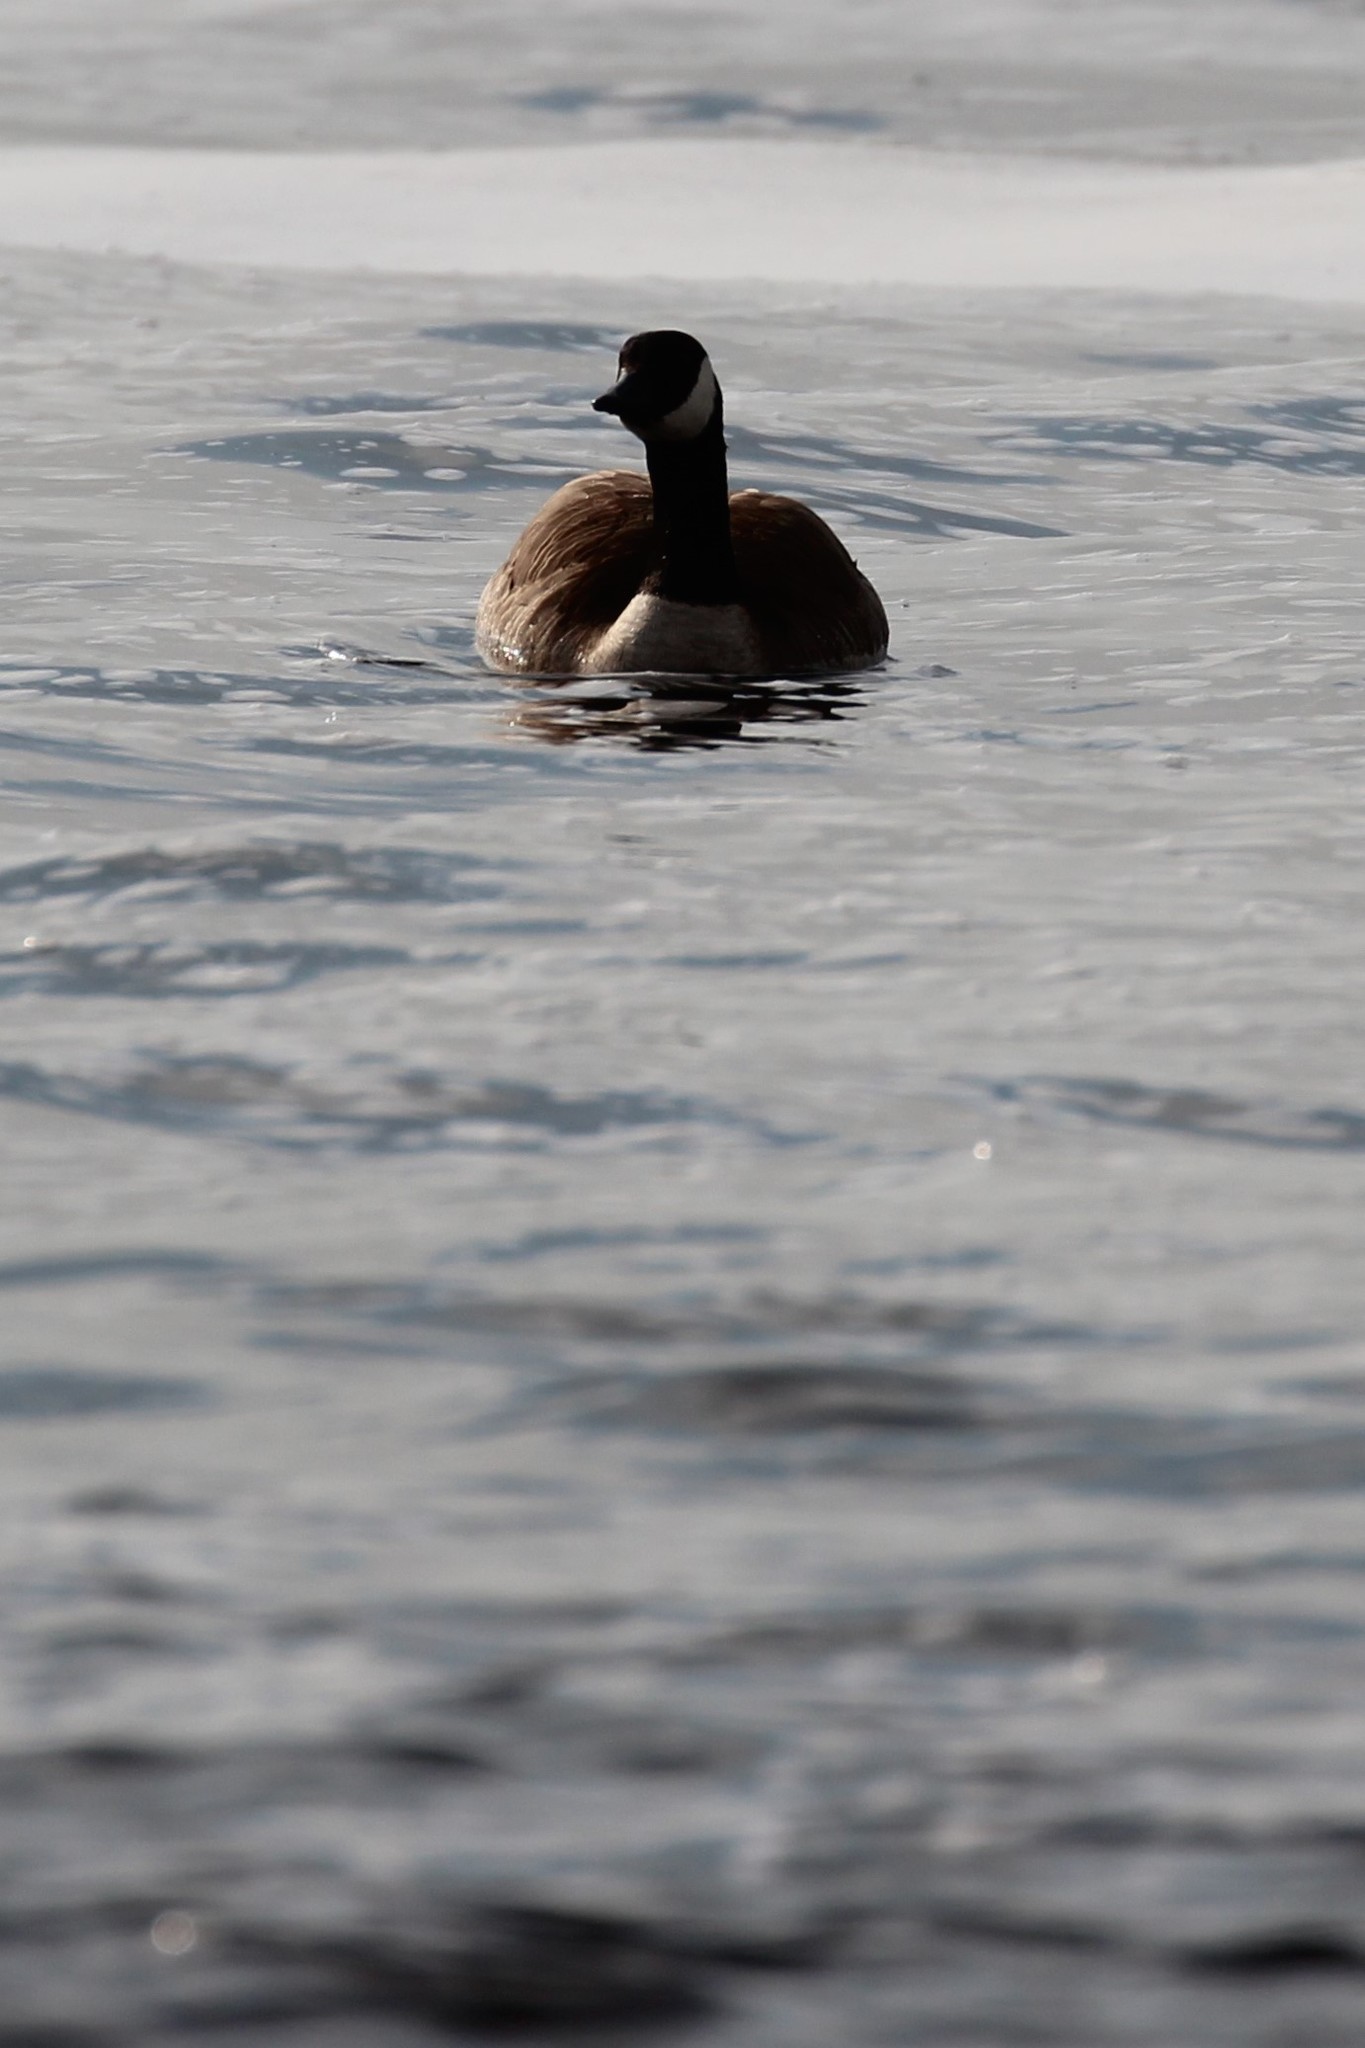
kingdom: Animalia
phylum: Chordata
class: Aves
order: Anseriformes
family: Anatidae
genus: Branta
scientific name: Branta canadensis
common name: Canada goose
